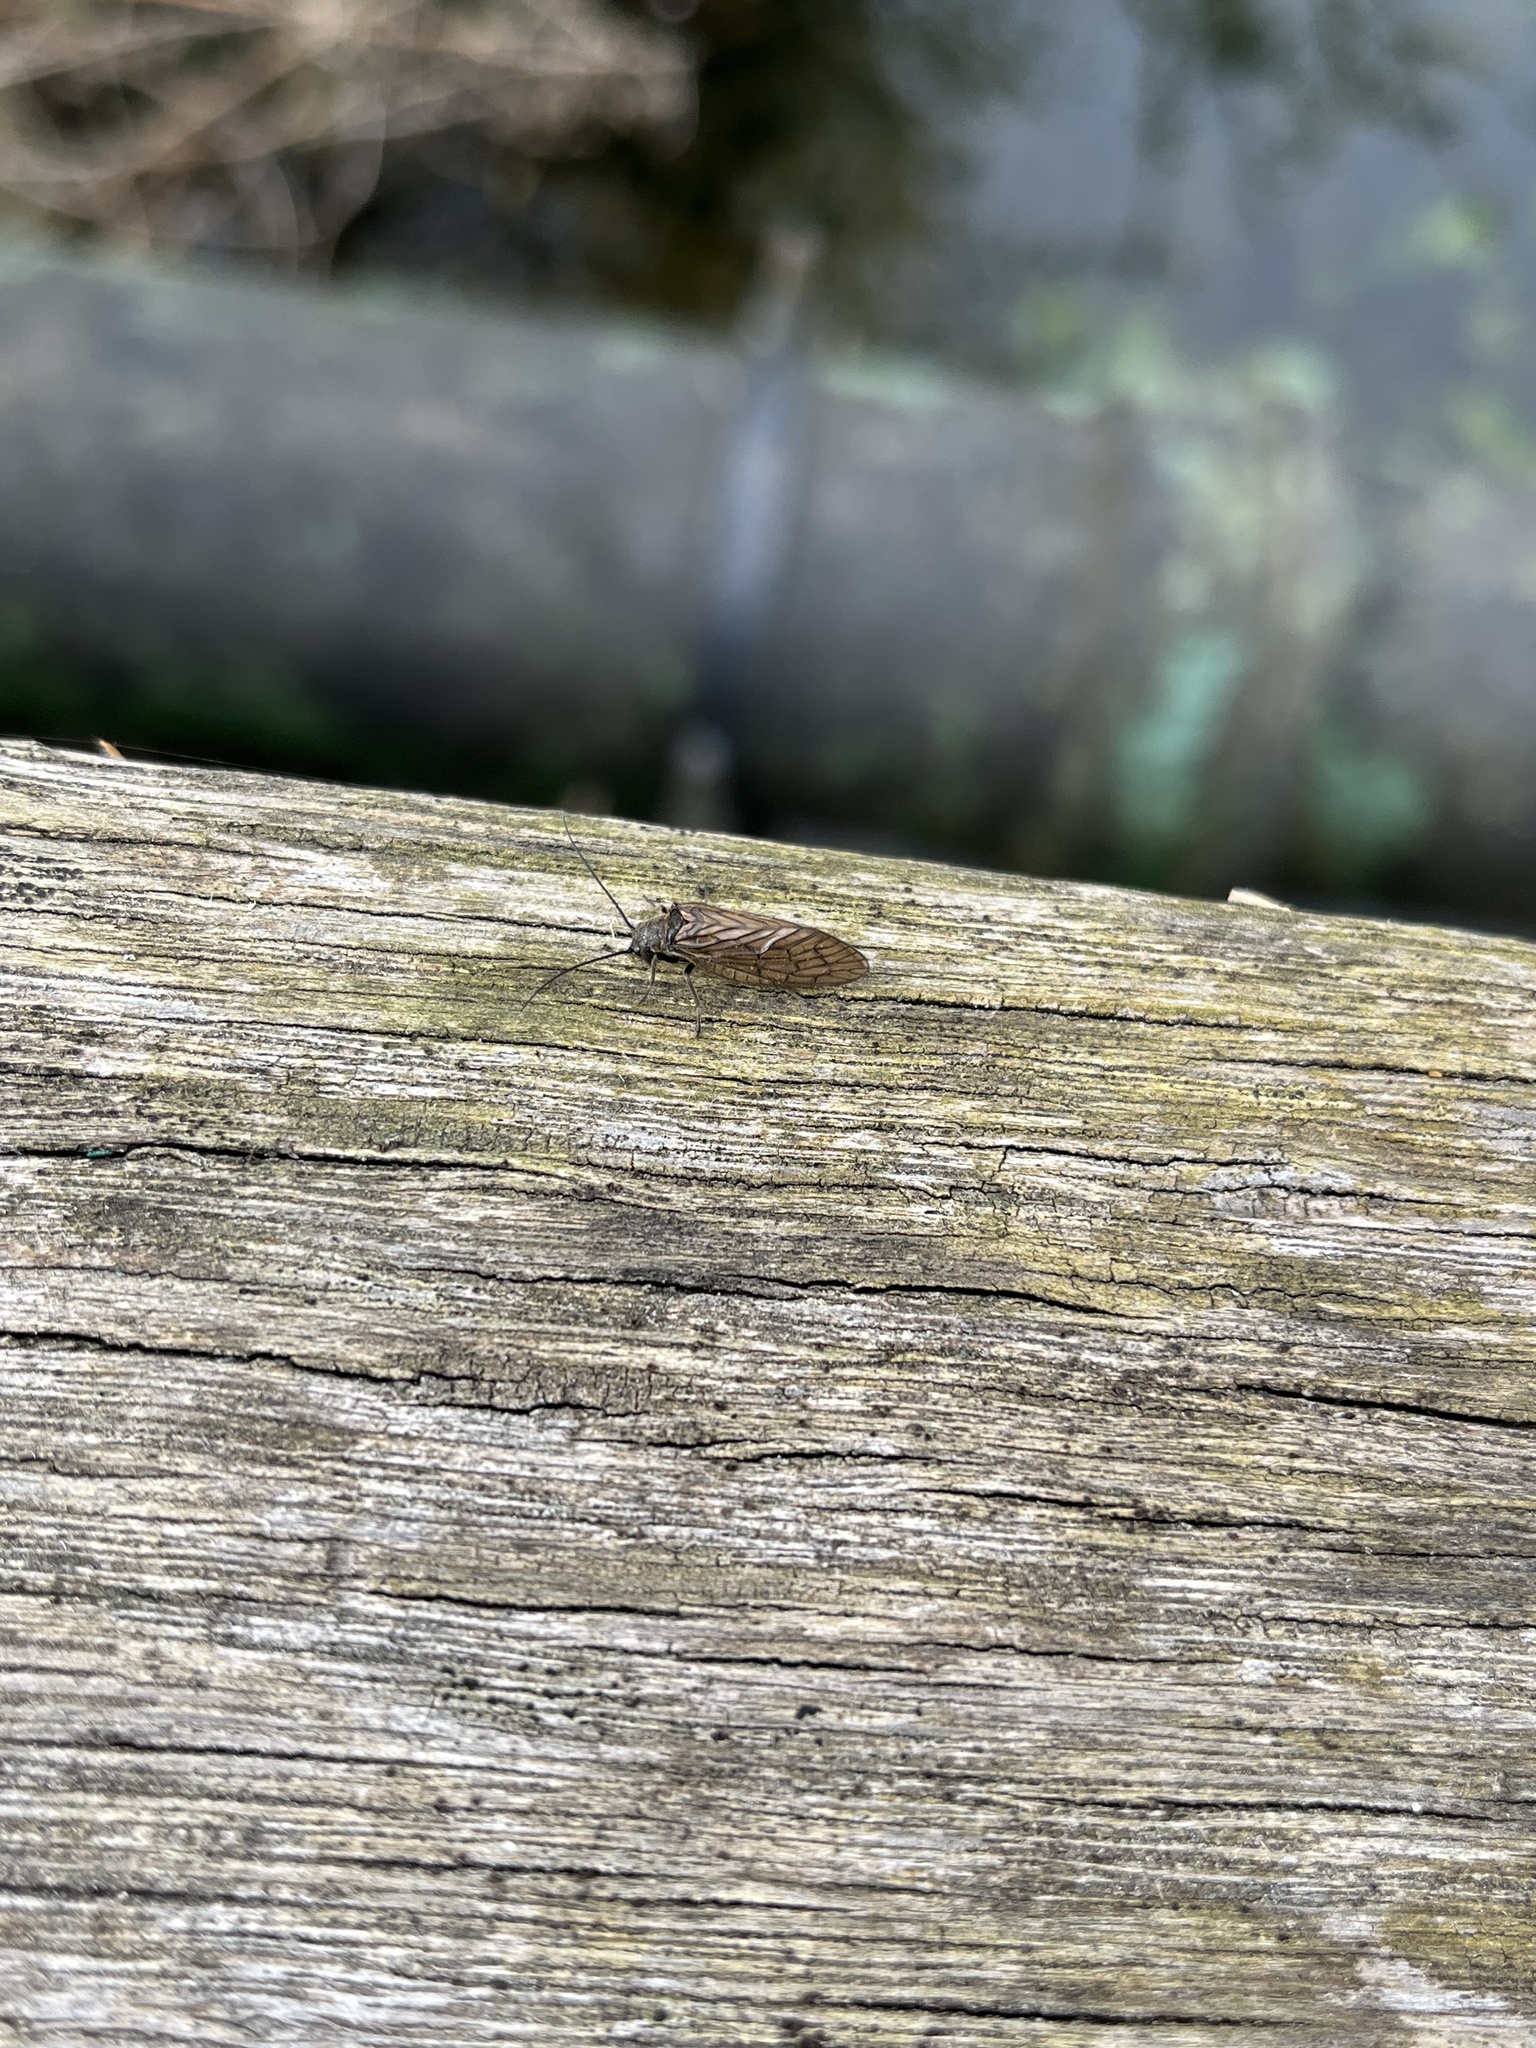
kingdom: Animalia
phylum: Arthropoda
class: Insecta
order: Megaloptera
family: Sialidae
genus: Sialis
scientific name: Sialis
